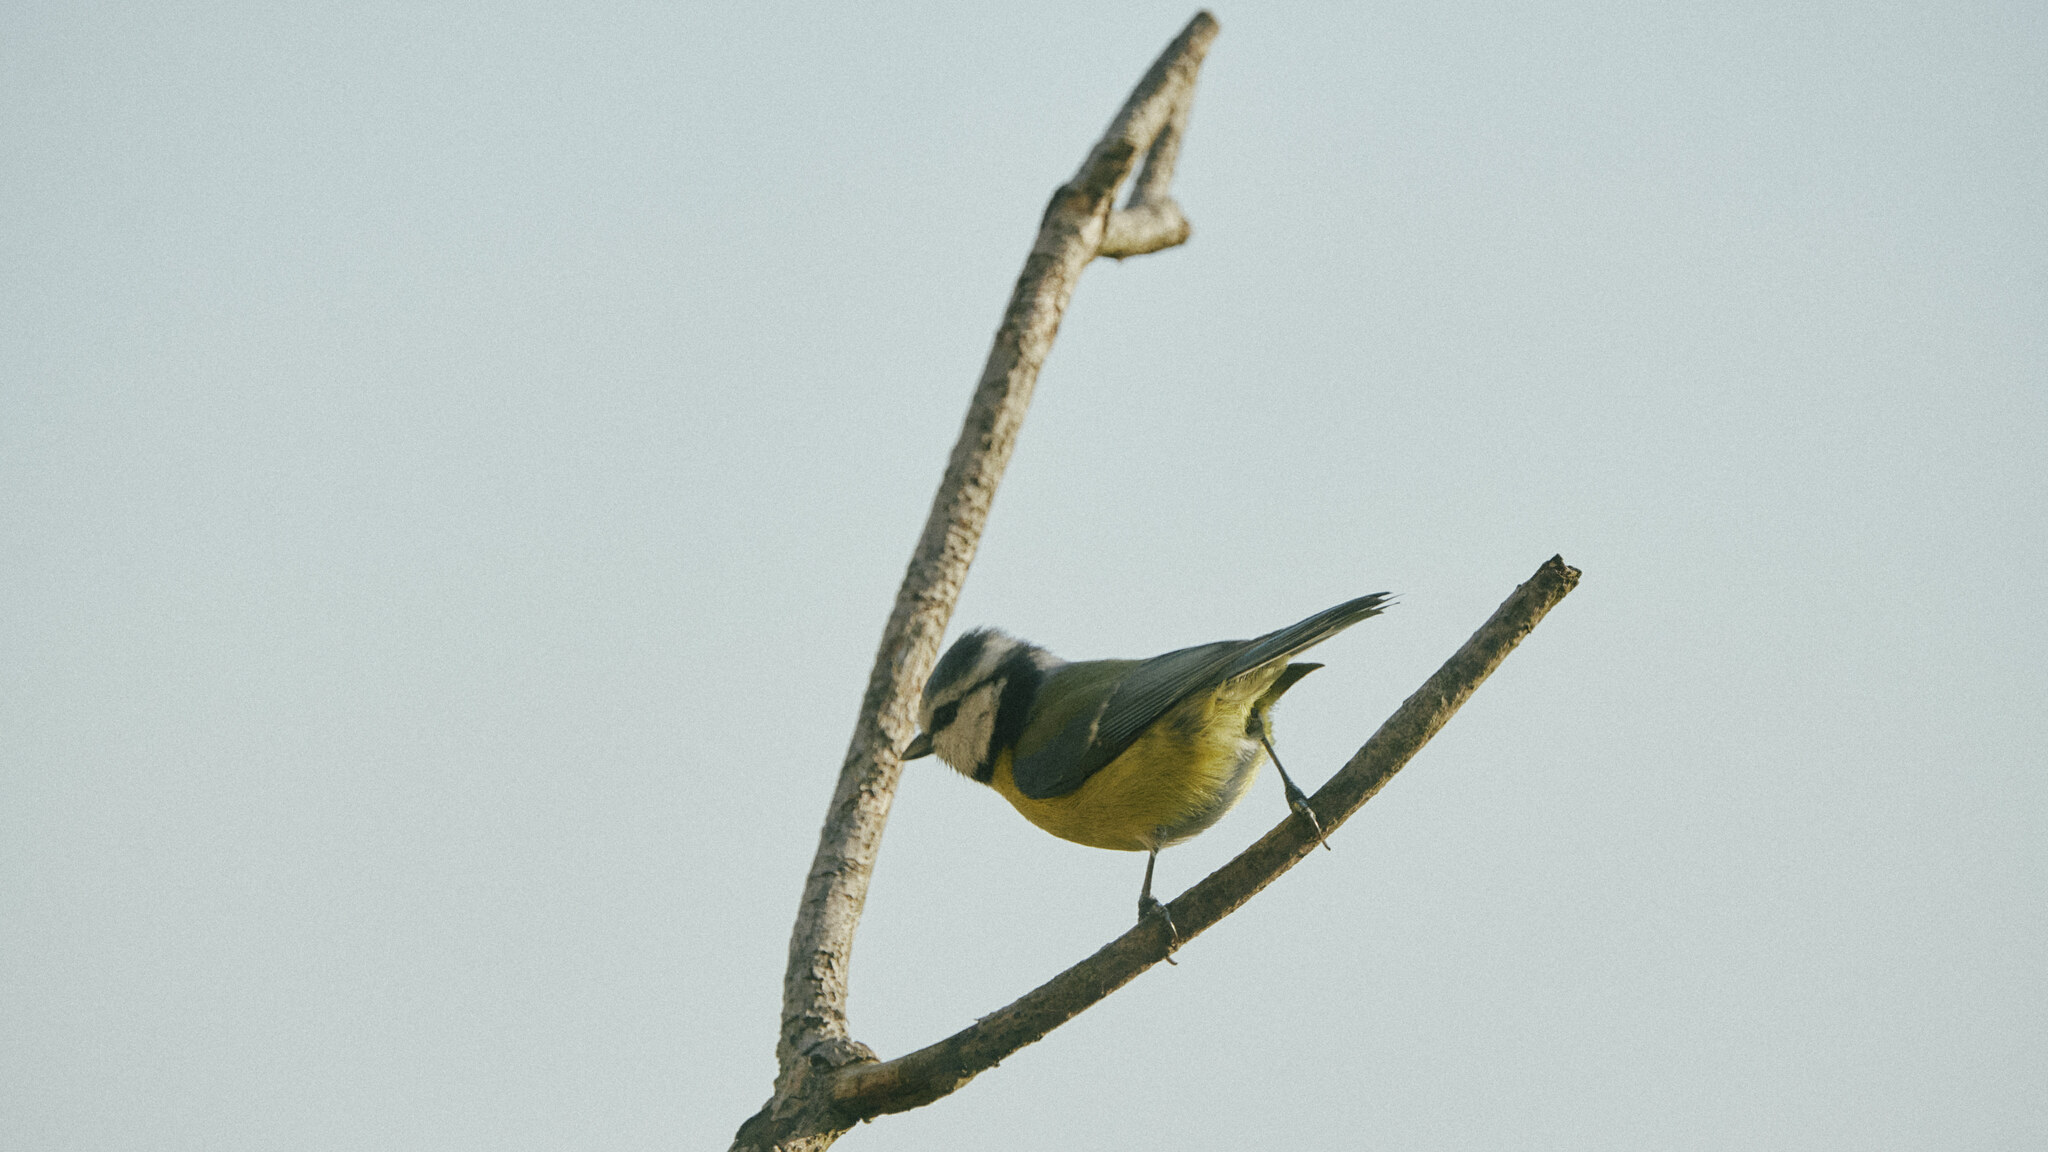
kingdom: Animalia
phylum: Chordata
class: Aves
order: Passeriformes
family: Paridae
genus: Cyanistes
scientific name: Cyanistes caeruleus
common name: Eurasian blue tit
